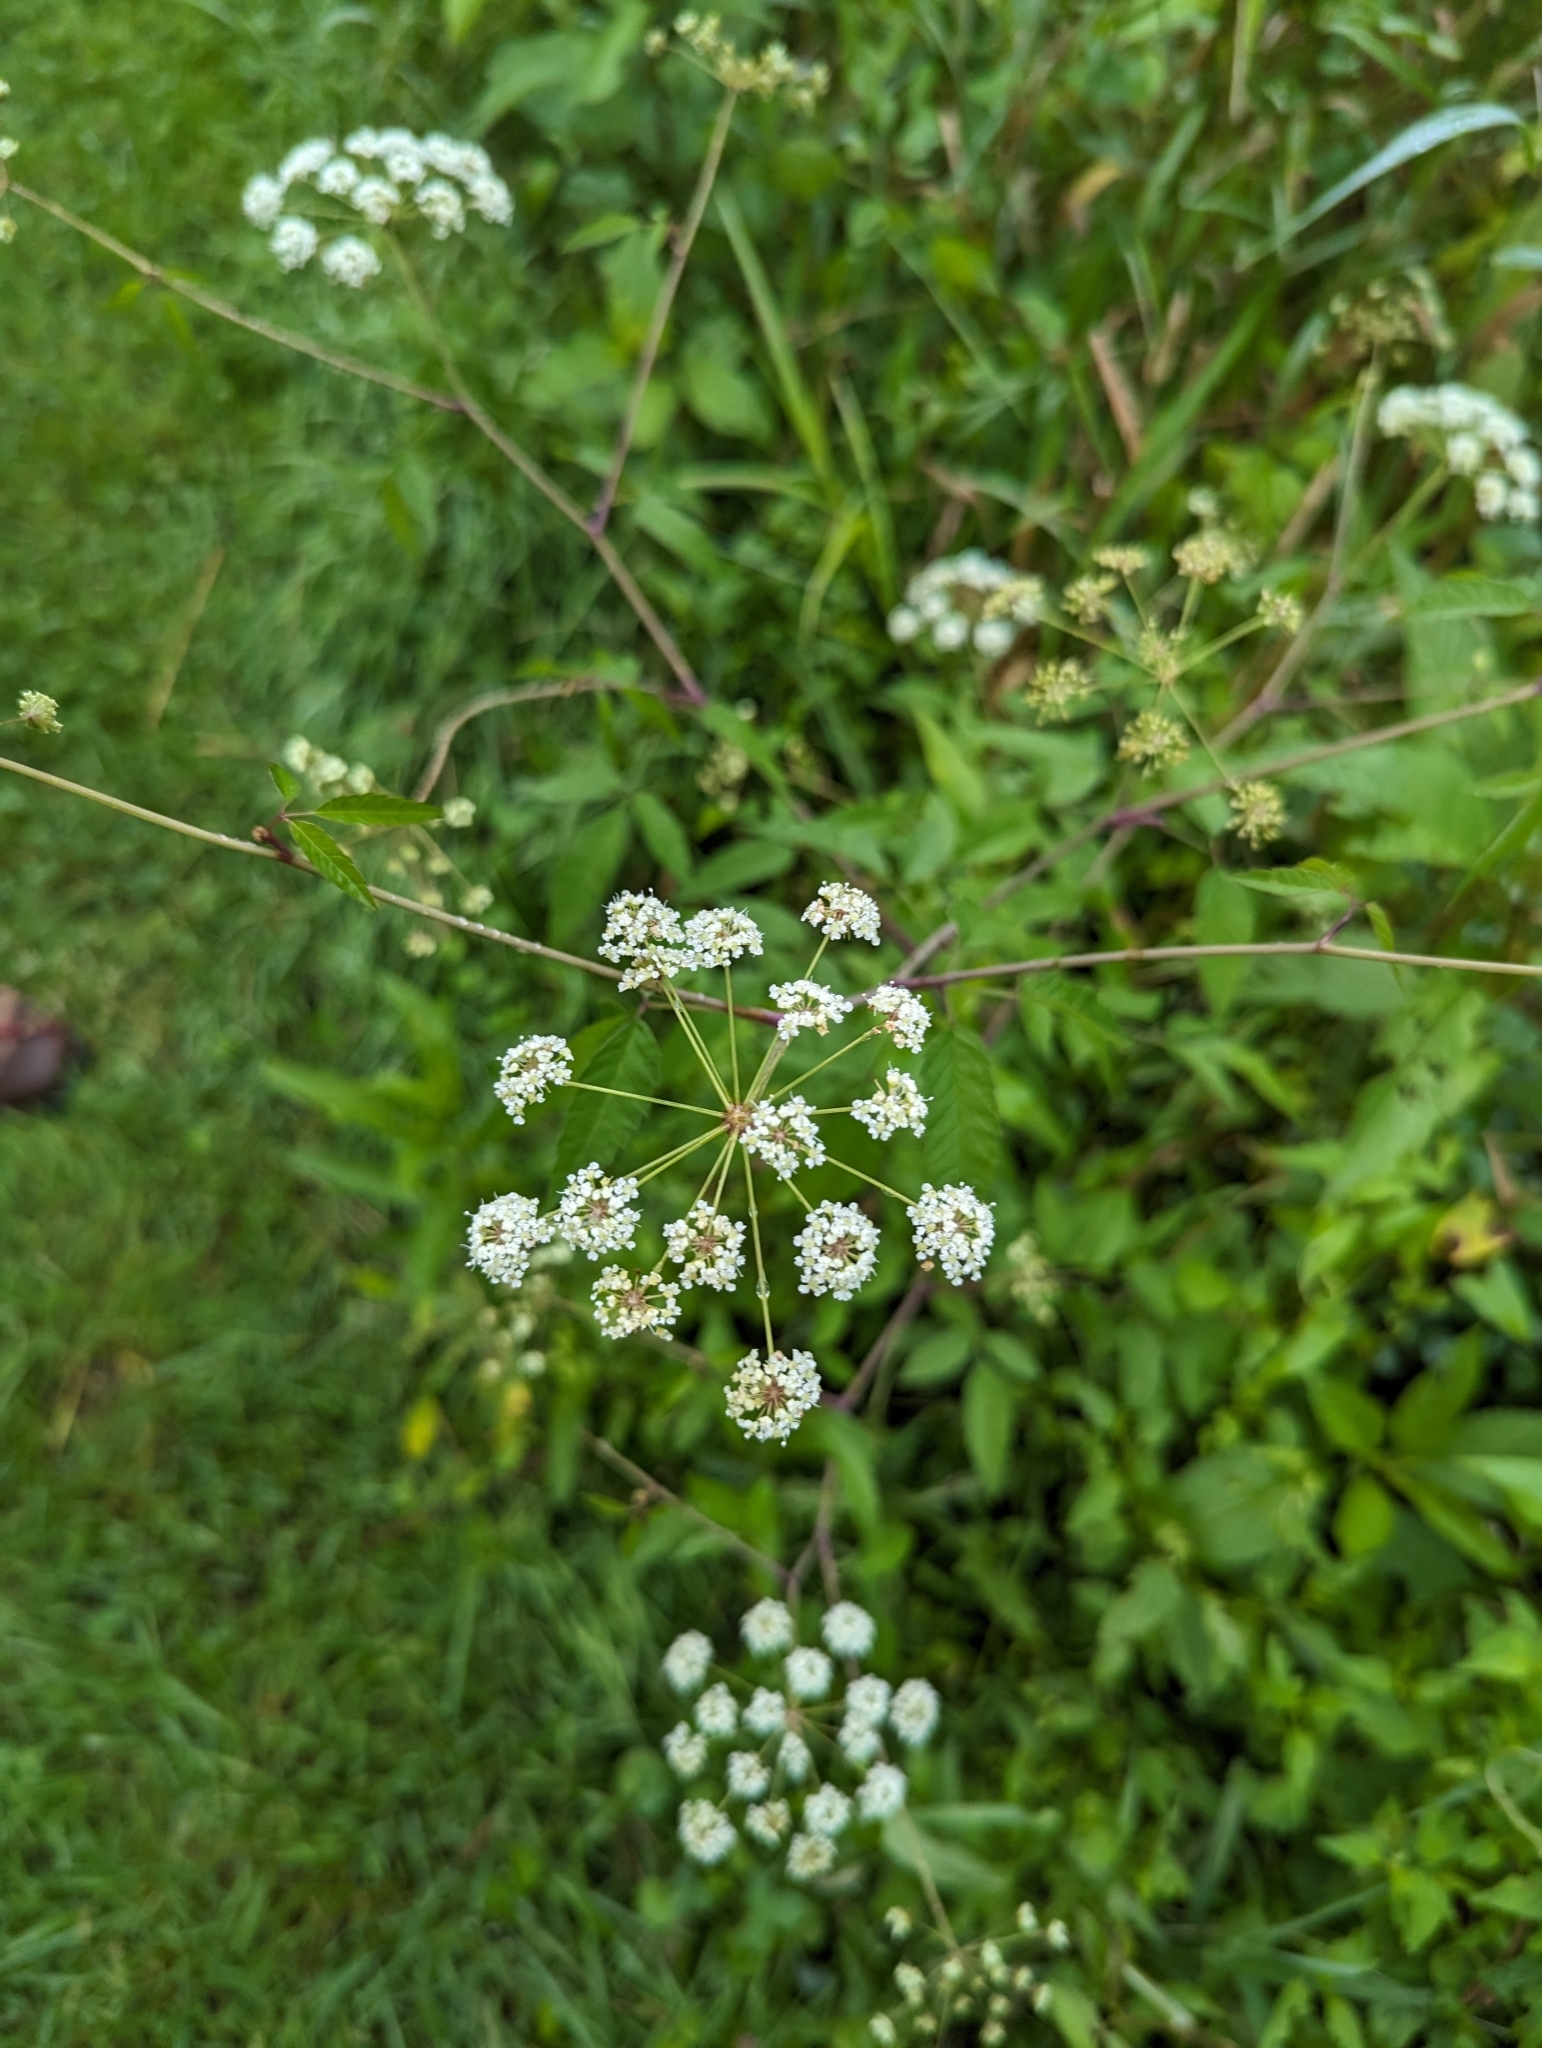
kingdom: Plantae
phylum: Tracheophyta
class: Magnoliopsida
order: Apiales
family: Apiaceae
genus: Cicuta
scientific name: Cicuta maculata
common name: Spotted cowbane
